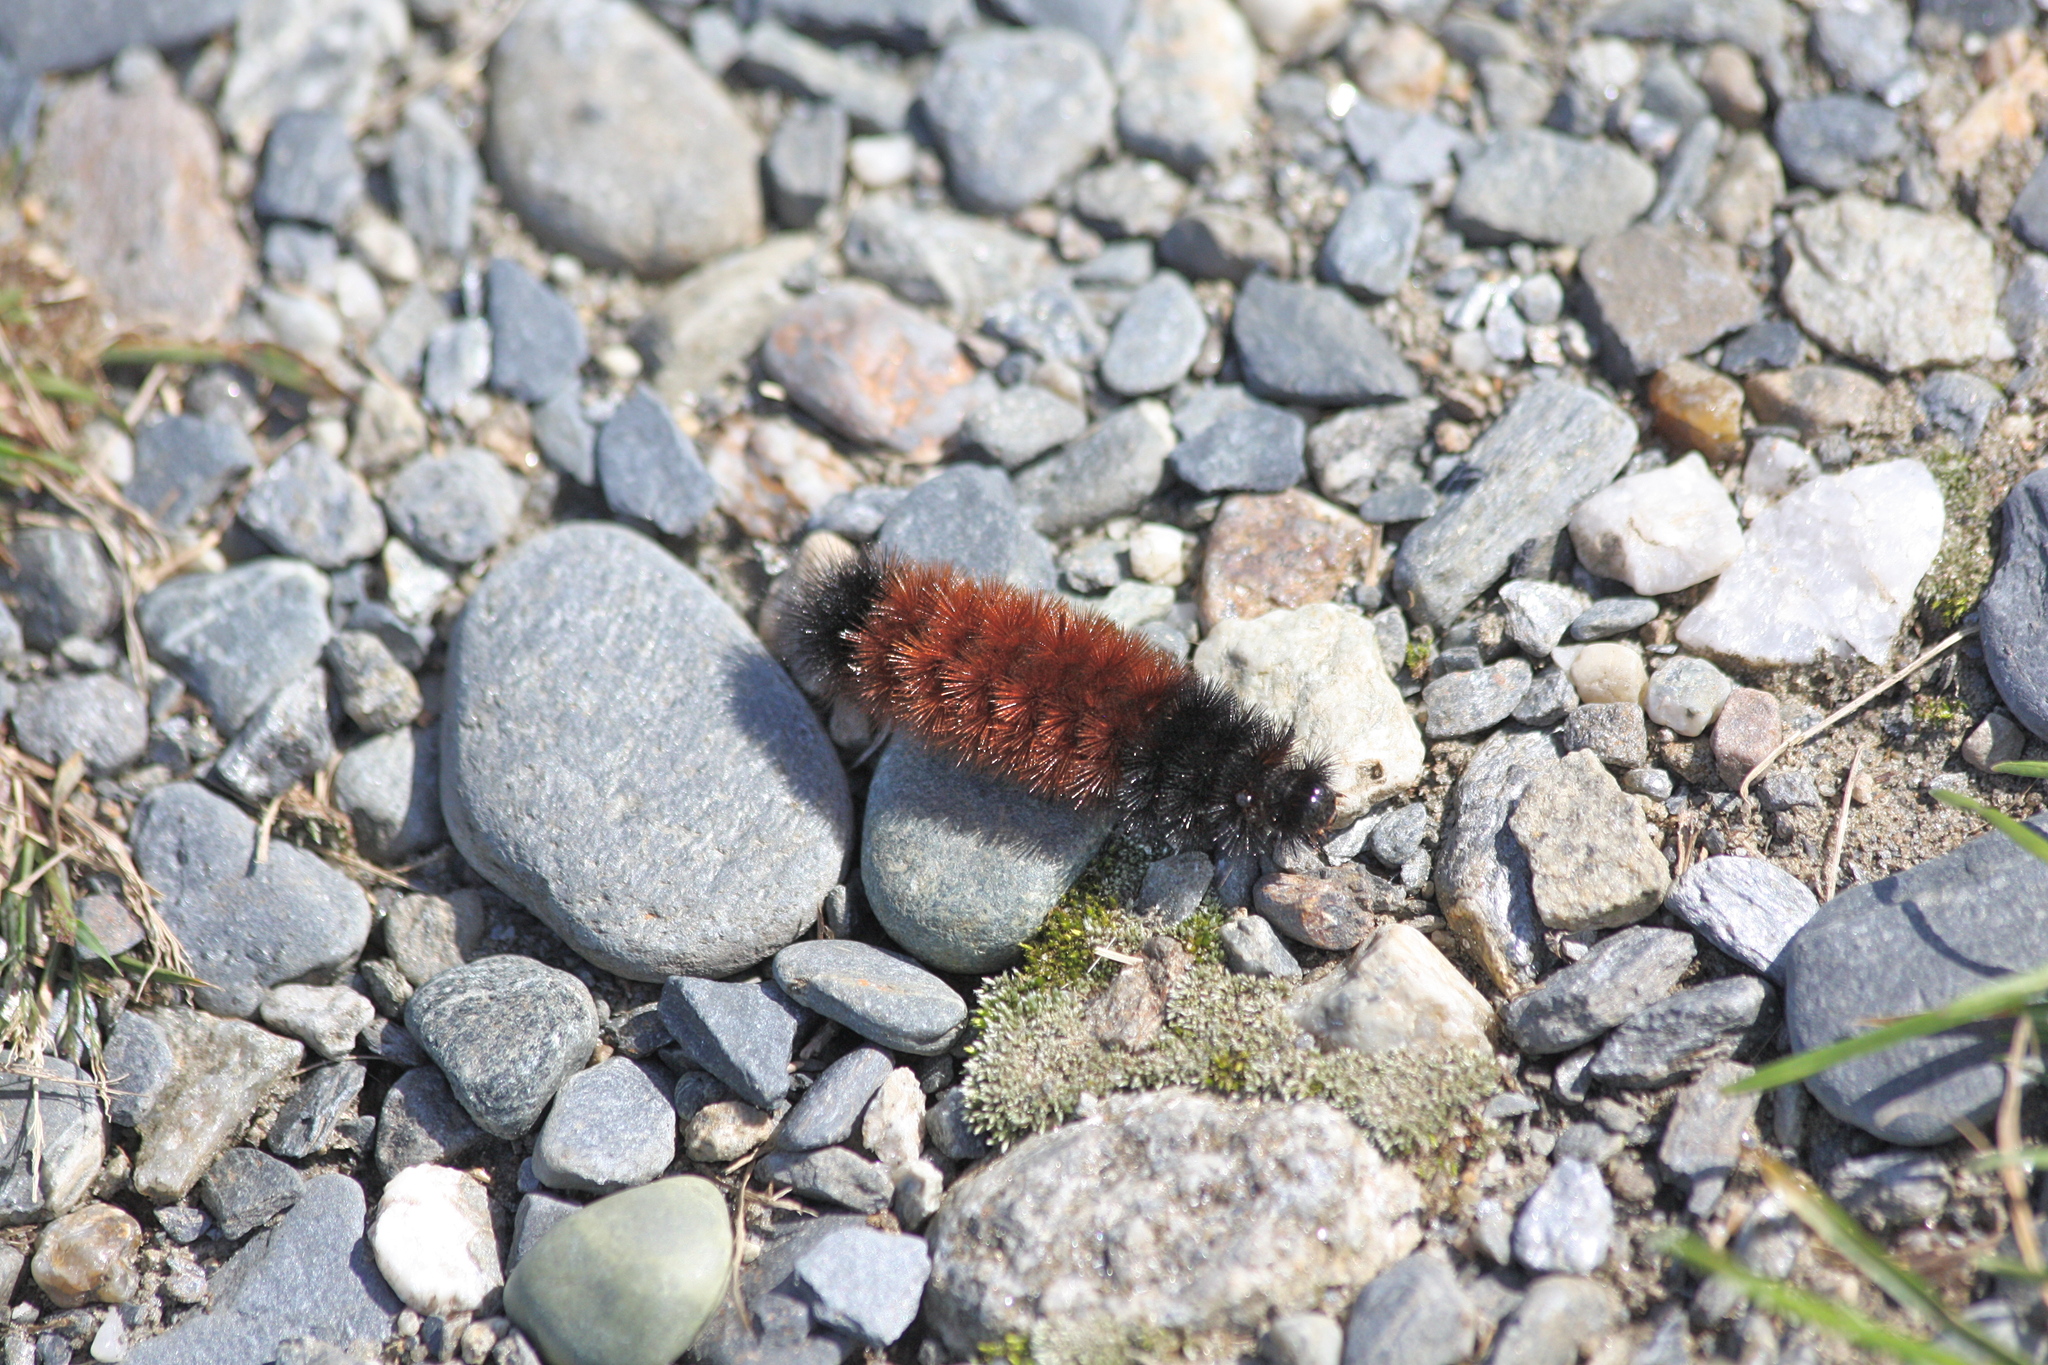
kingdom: Animalia
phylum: Arthropoda
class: Insecta
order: Lepidoptera
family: Erebidae
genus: Pyrrharctia
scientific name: Pyrrharctia isabella
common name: Isabella tiger moth
